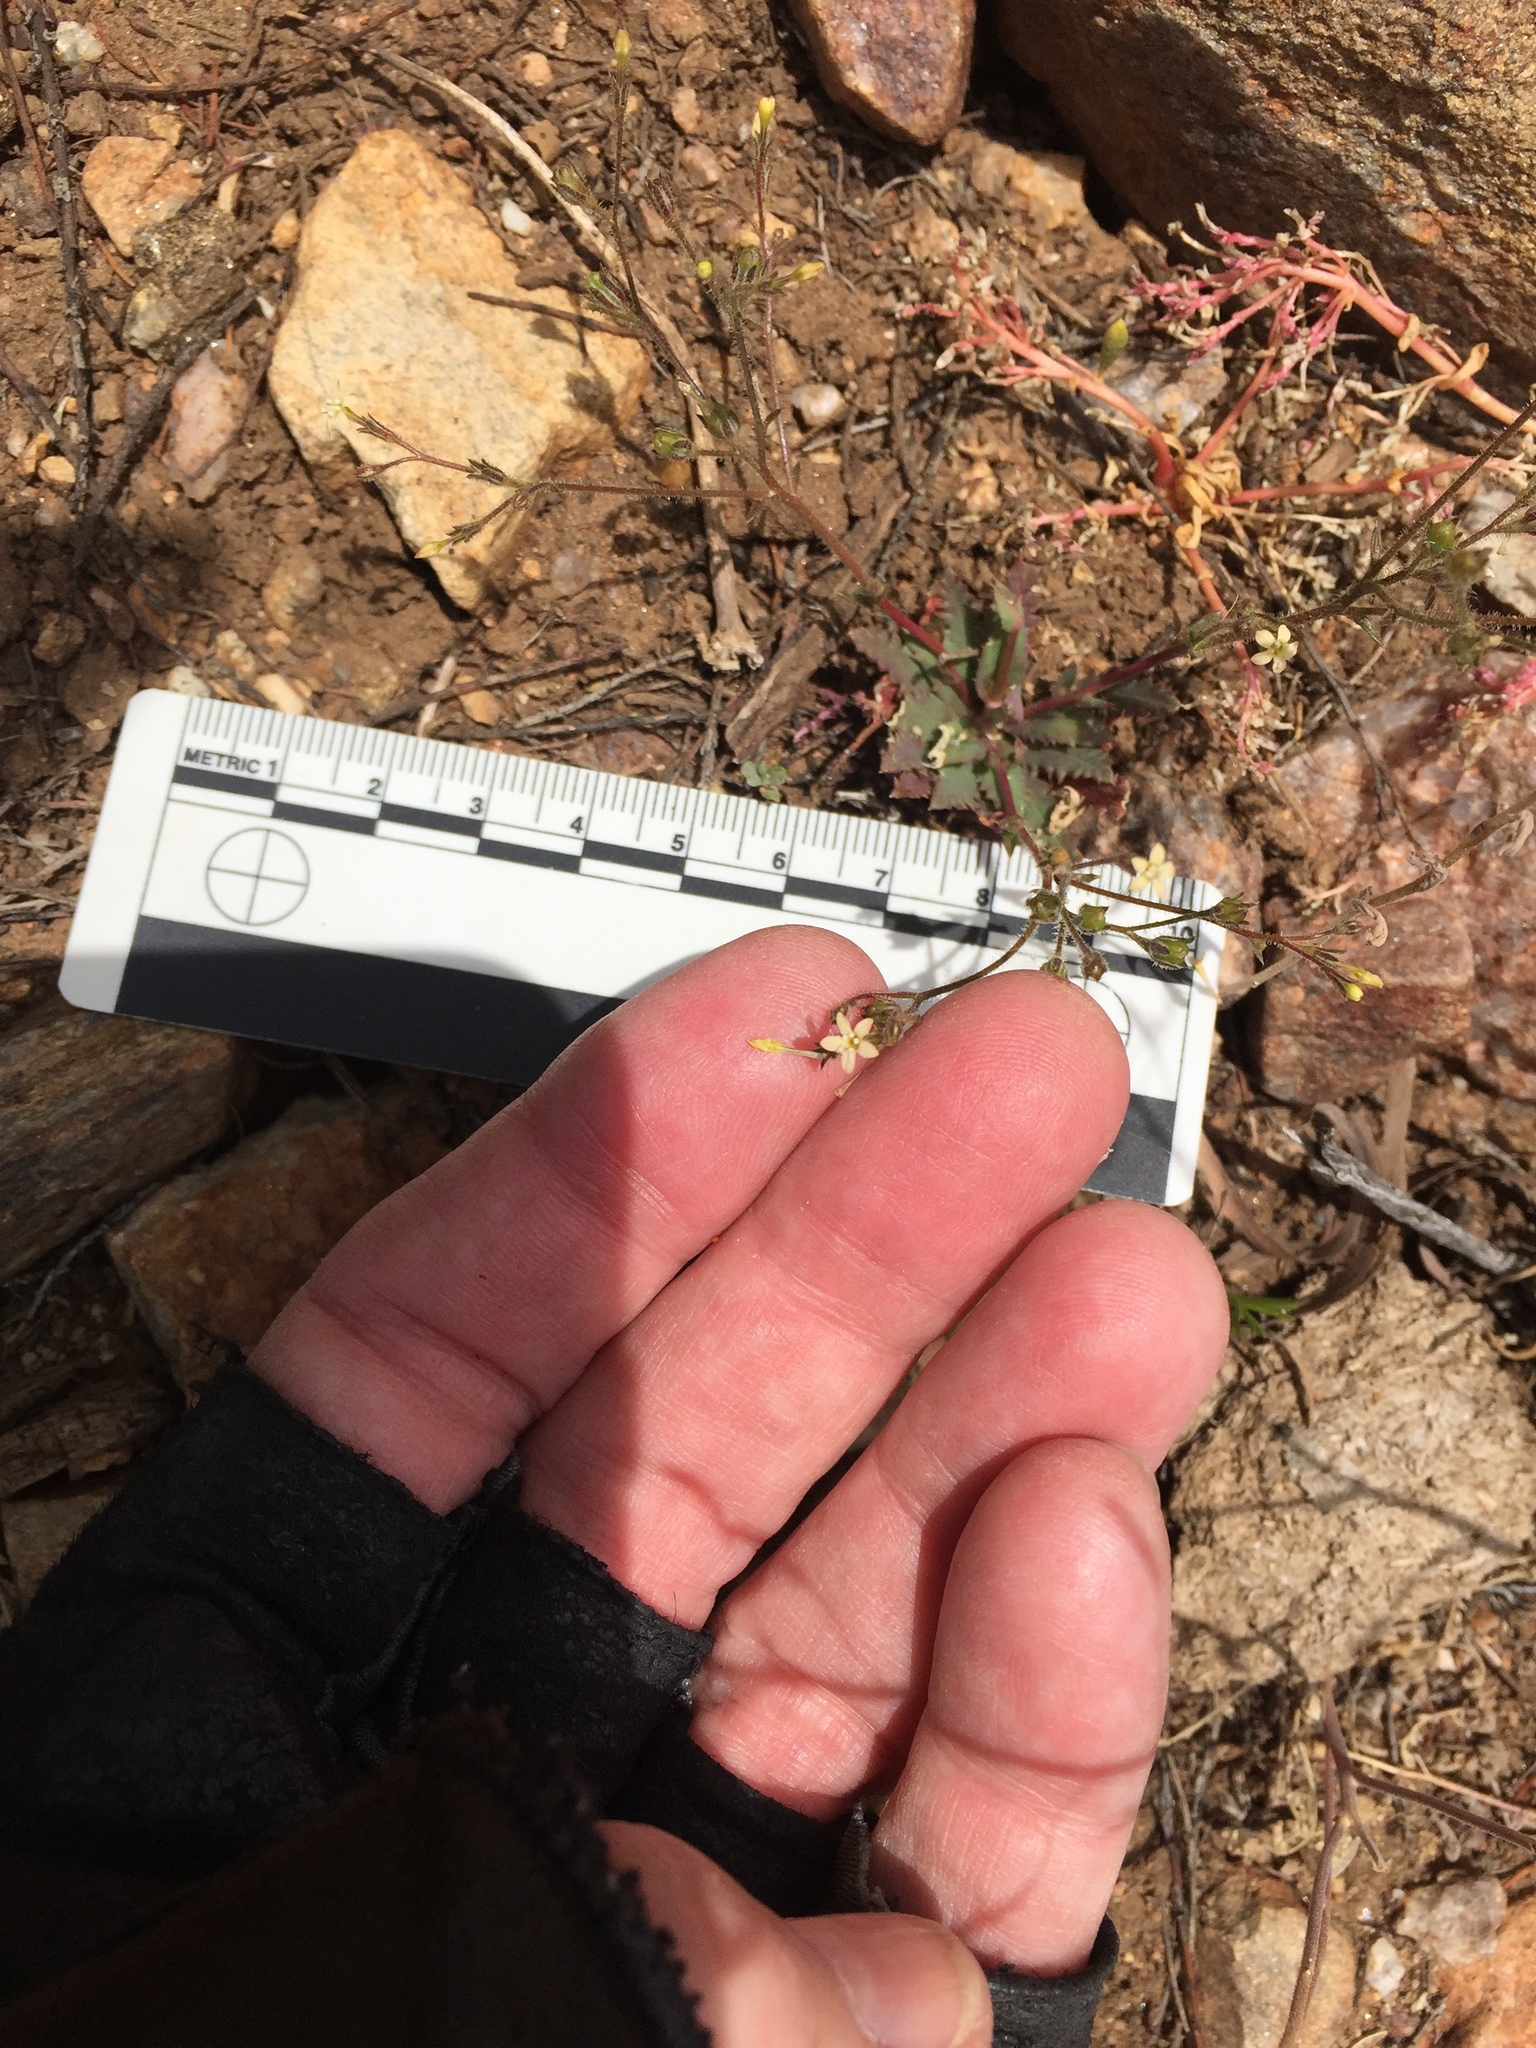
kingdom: Plantae
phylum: Tracheophyta
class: Magnoliopsida
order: Ericales
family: Polemoniaceae
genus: Gilia
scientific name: Gilia diegensis
